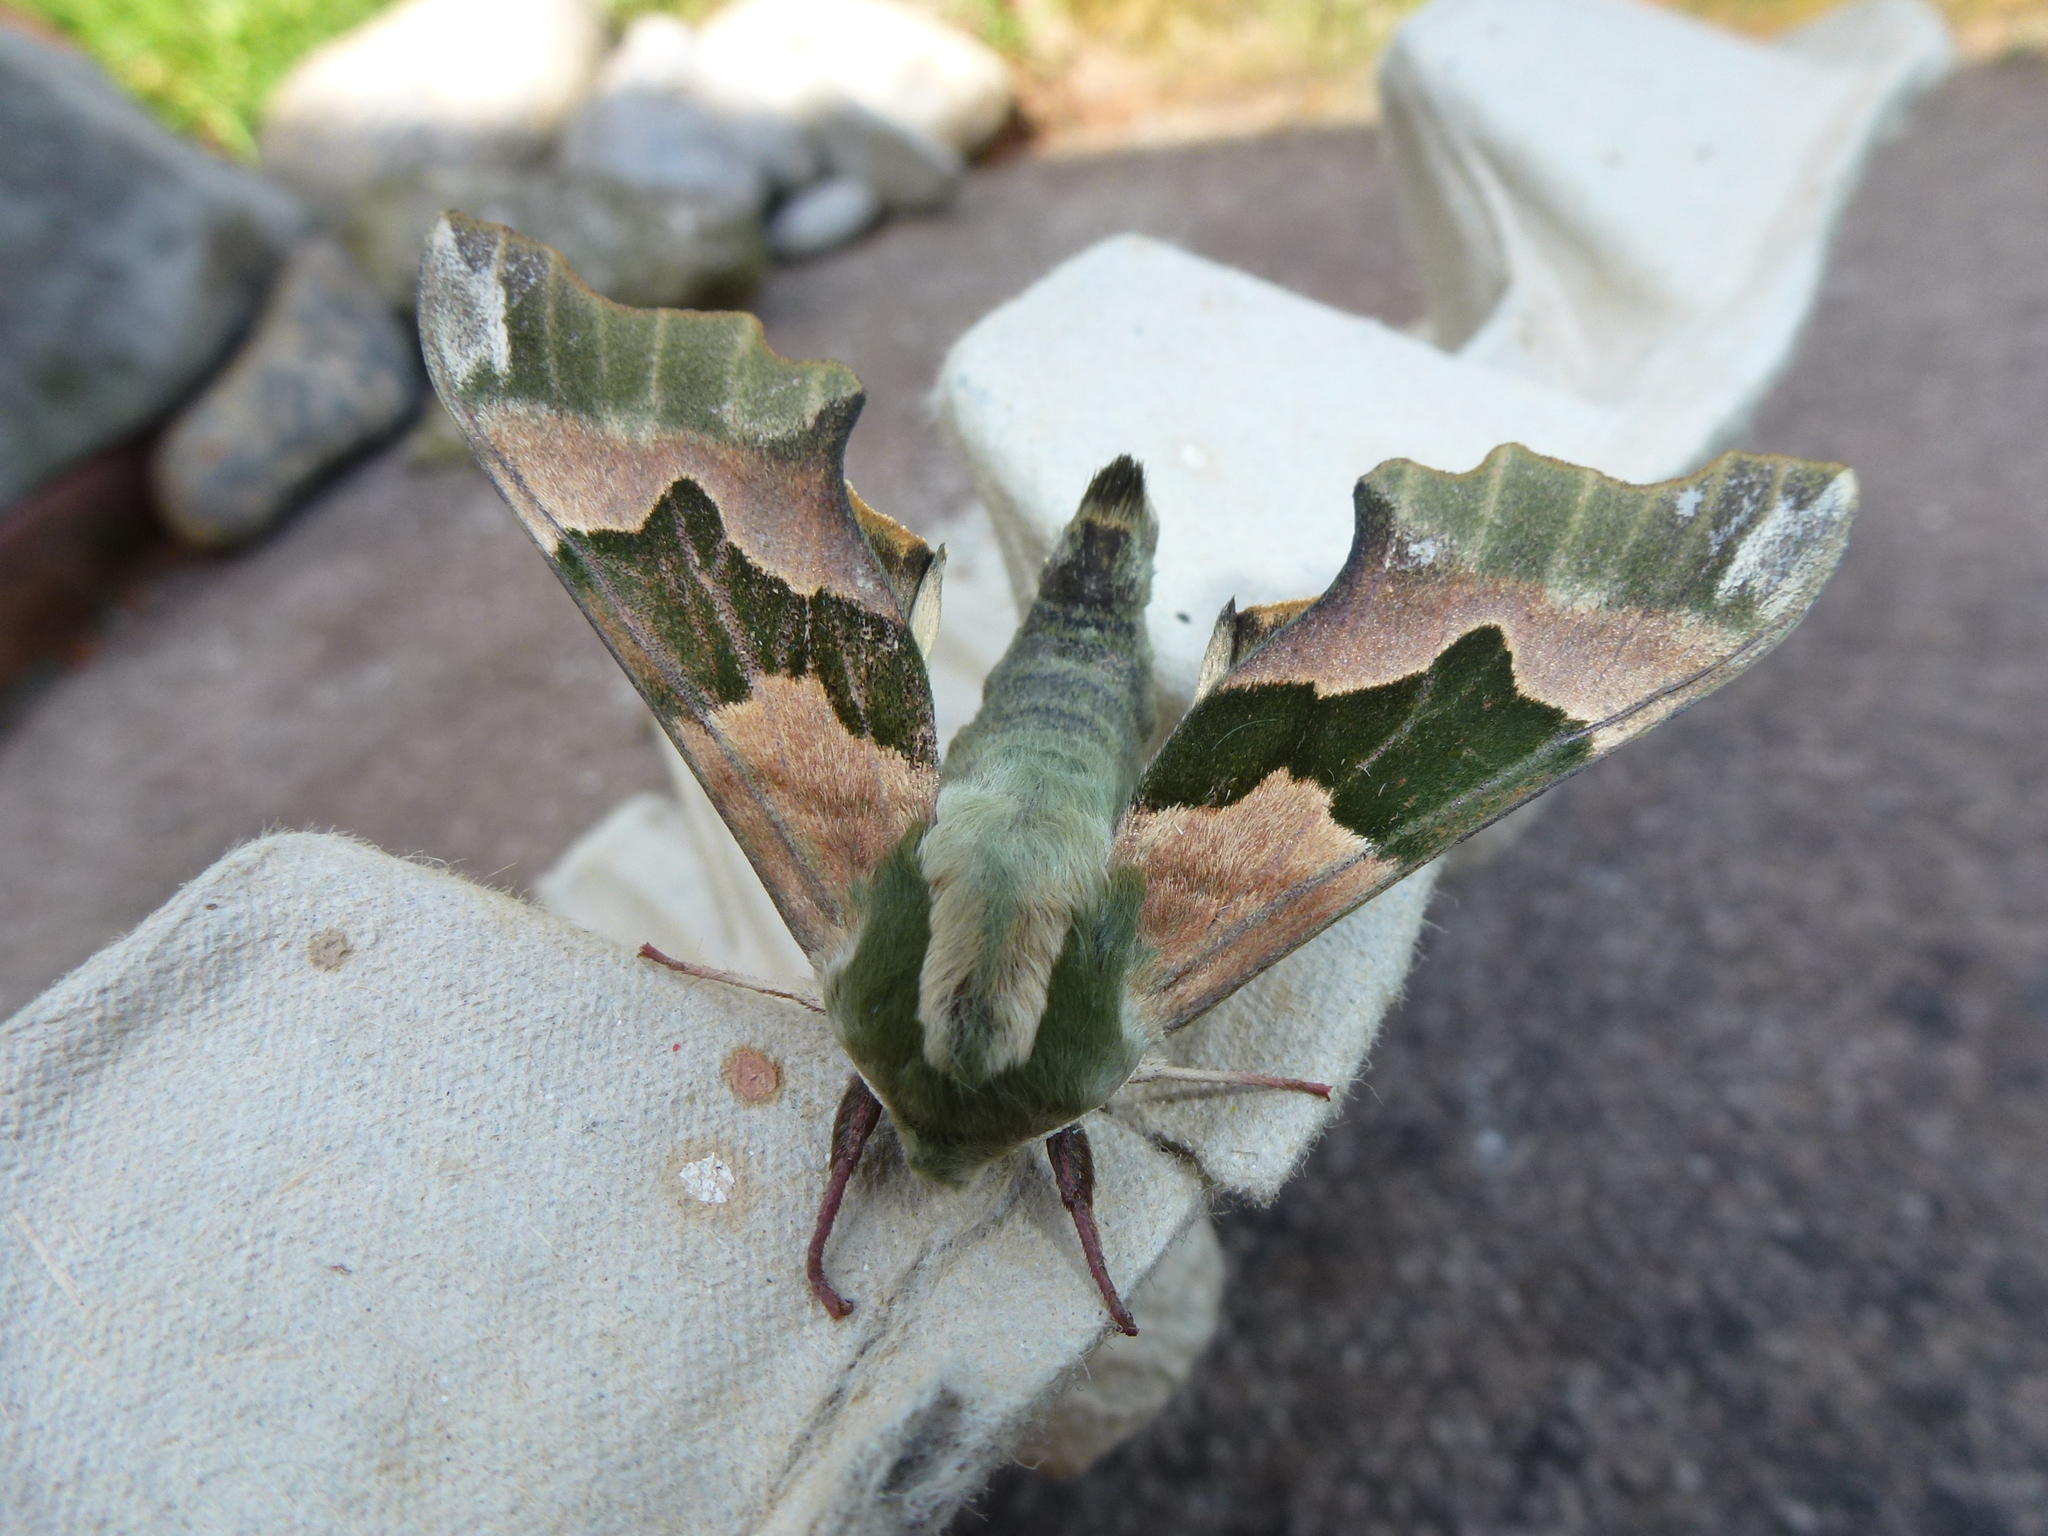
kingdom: Animalia
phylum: Arthropoda
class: Insecta
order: Lepidoptera
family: Sphingidae
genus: Mimas
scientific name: Mimas tiliae
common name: Lime hawk-moth
